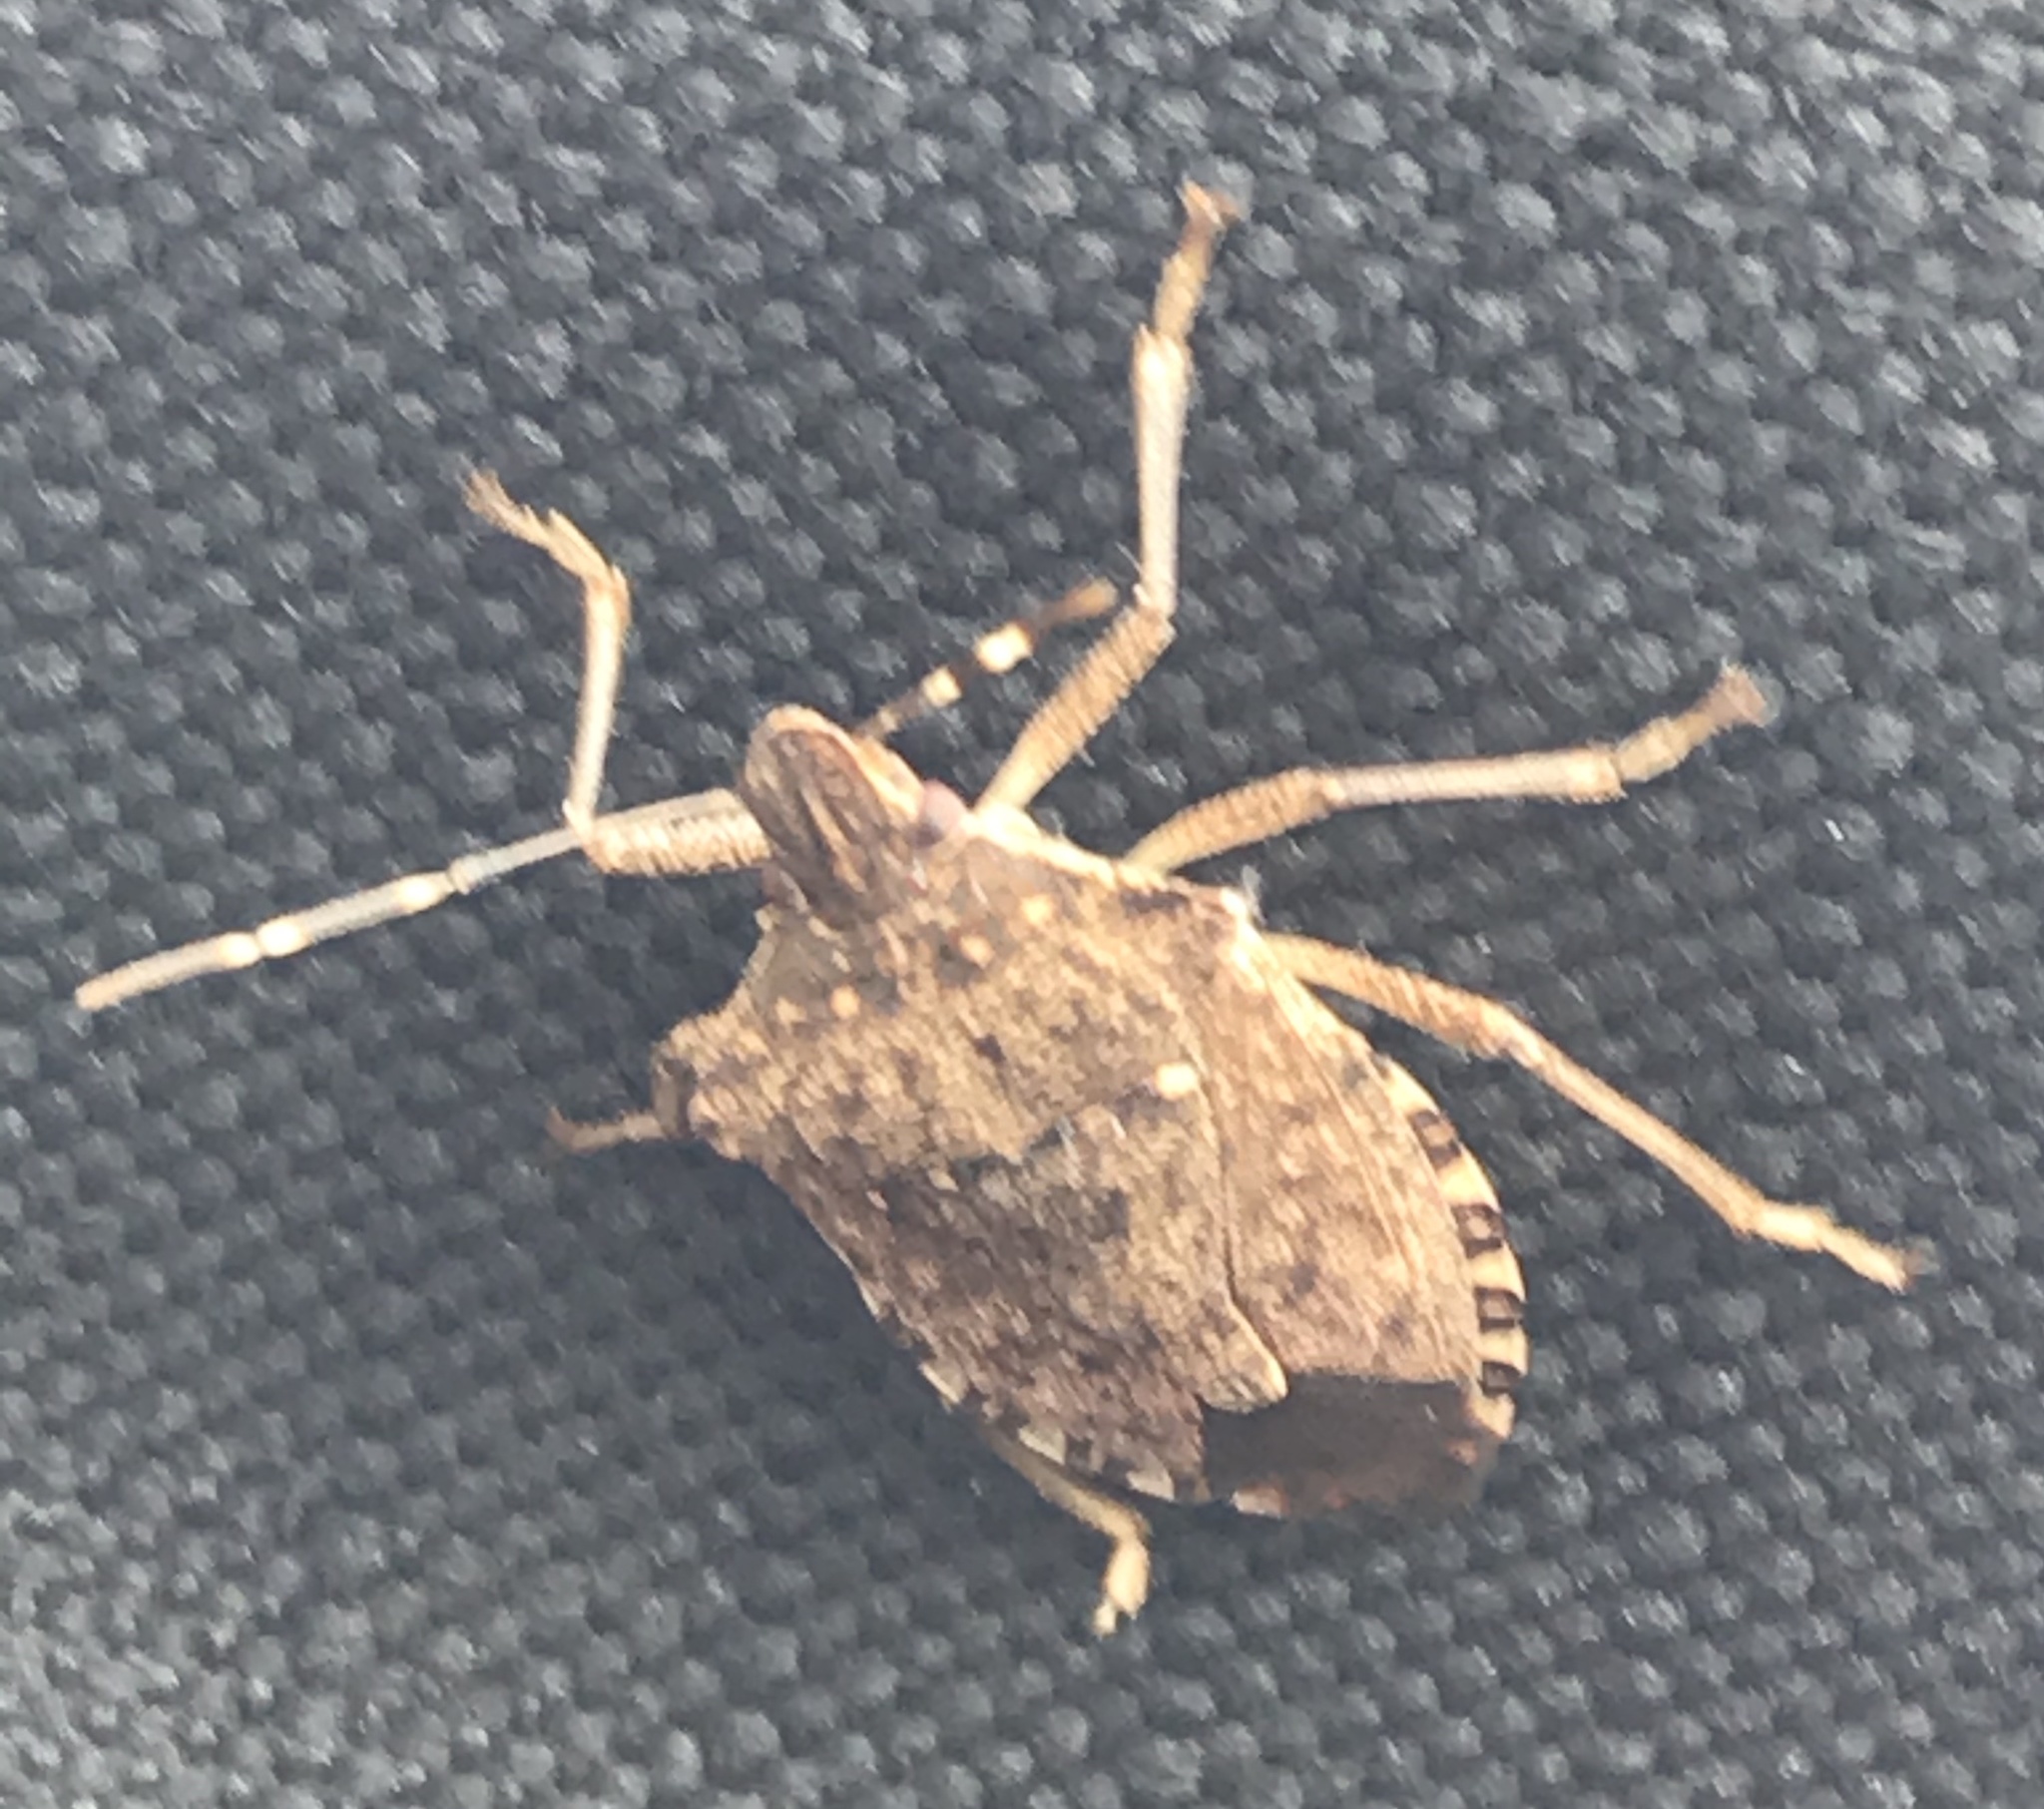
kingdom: Animalia
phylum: Arthropoda
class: Insecta
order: Hemiptera
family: Pentatomidae
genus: Halyomorpha
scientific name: Halyomorpha halys
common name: Brown marmorated stink bug
